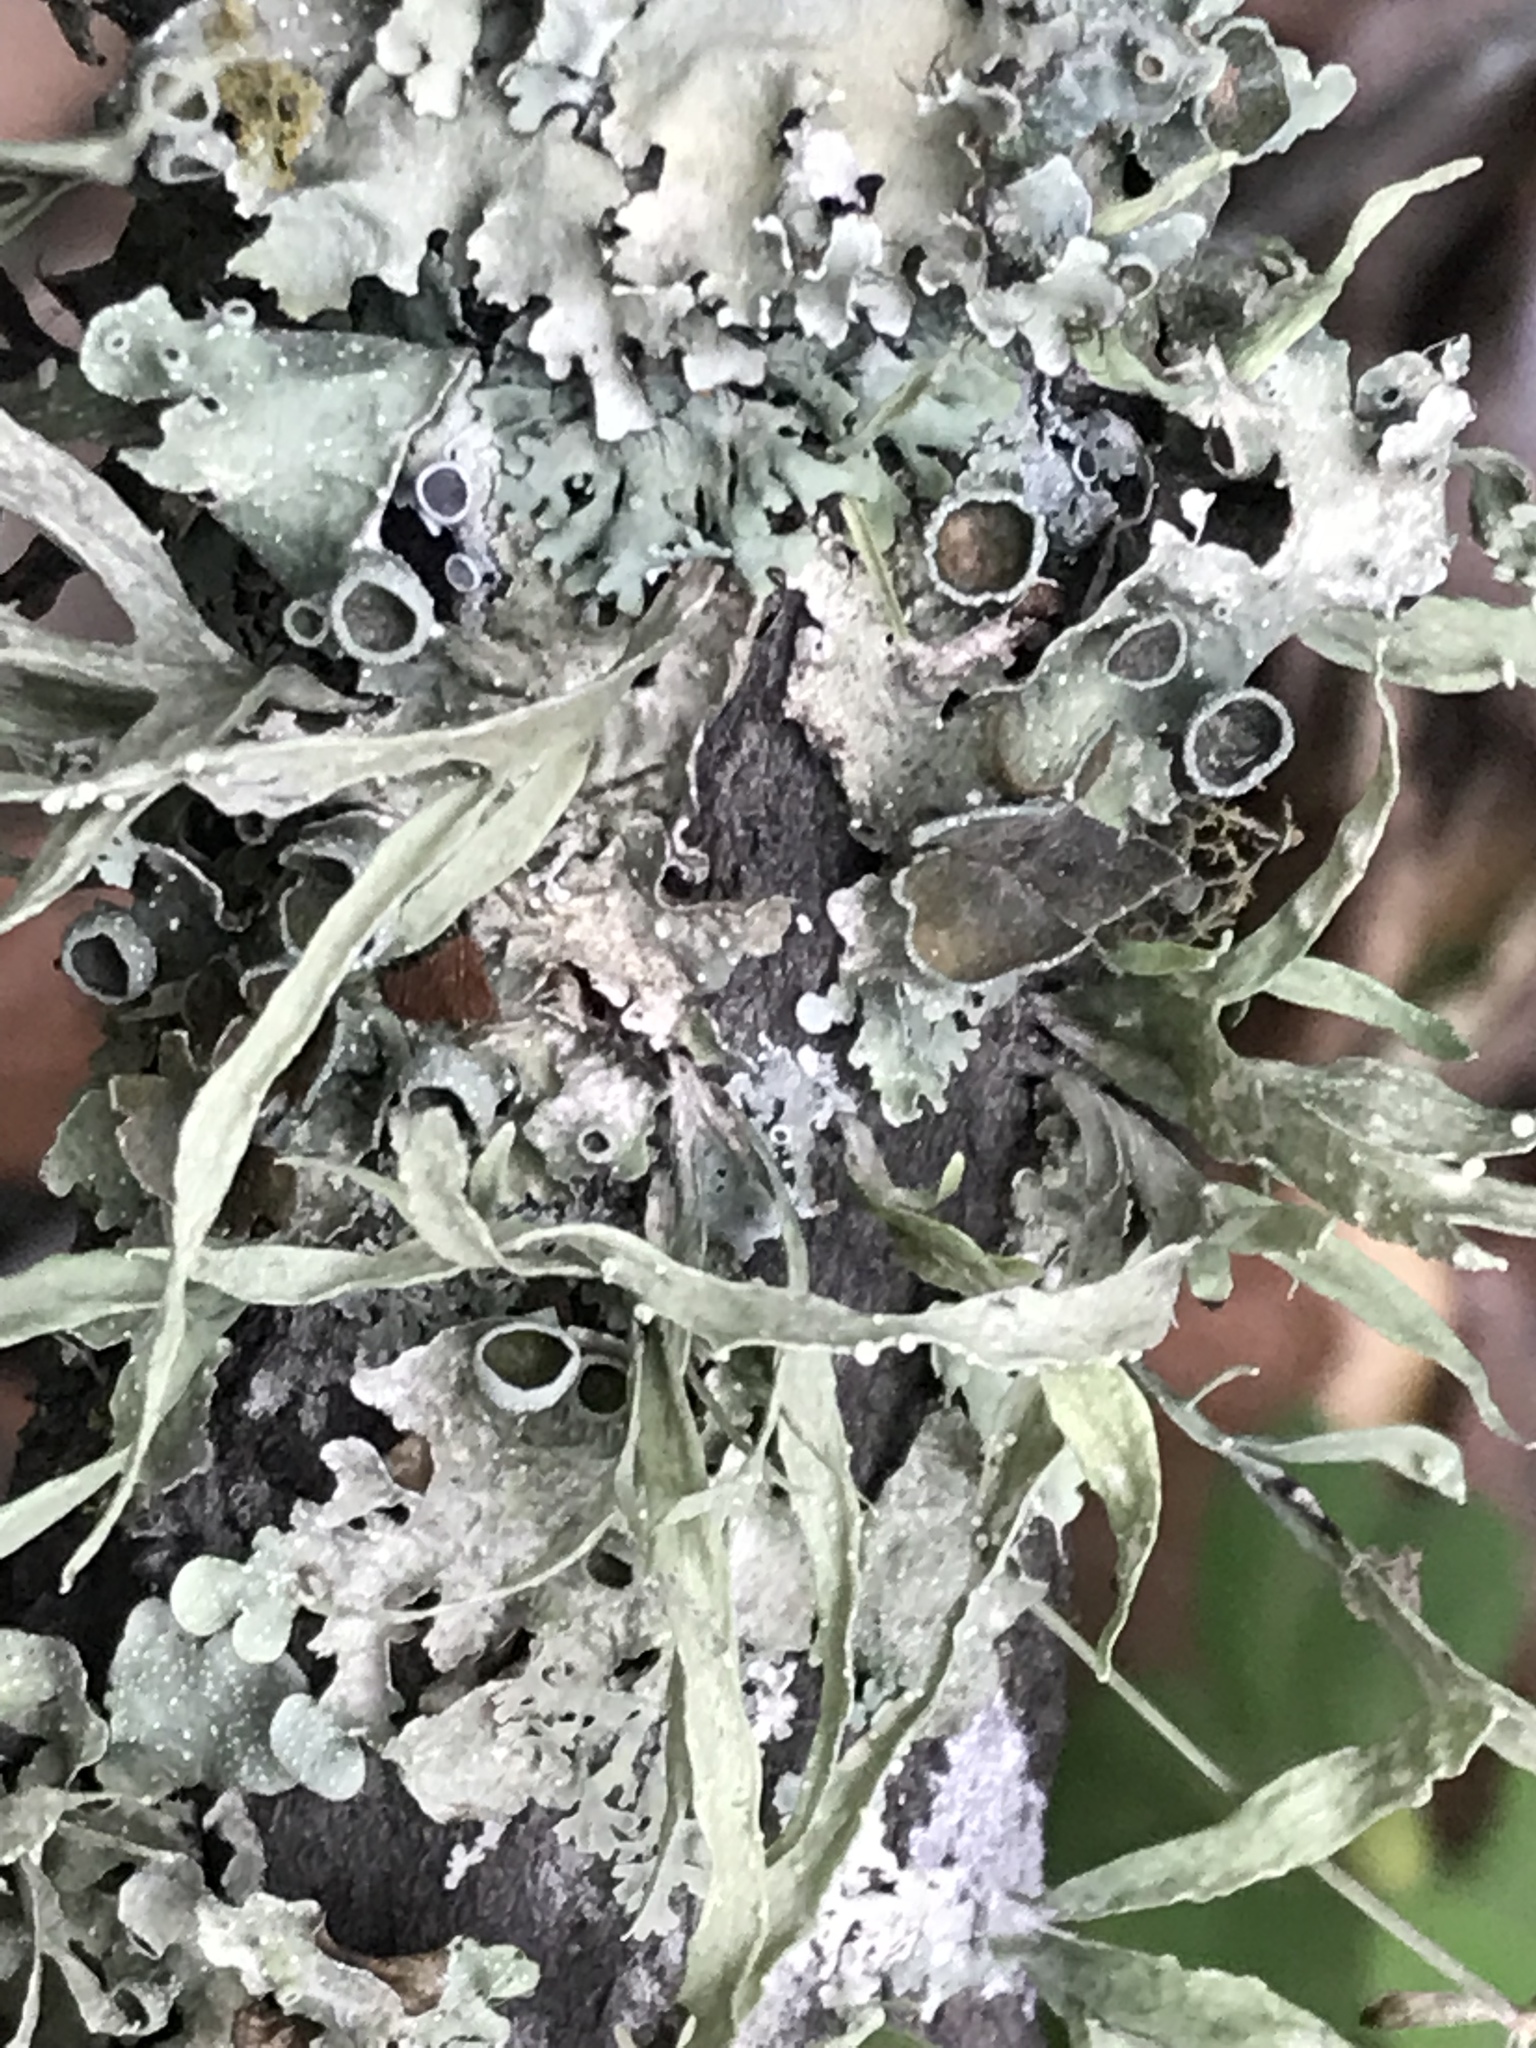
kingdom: Fungi
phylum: Ascomycota
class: Lecanoromycetes
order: Lecanorales
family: Ramalinaceae
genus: Ramalina
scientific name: Ramalina celastri
